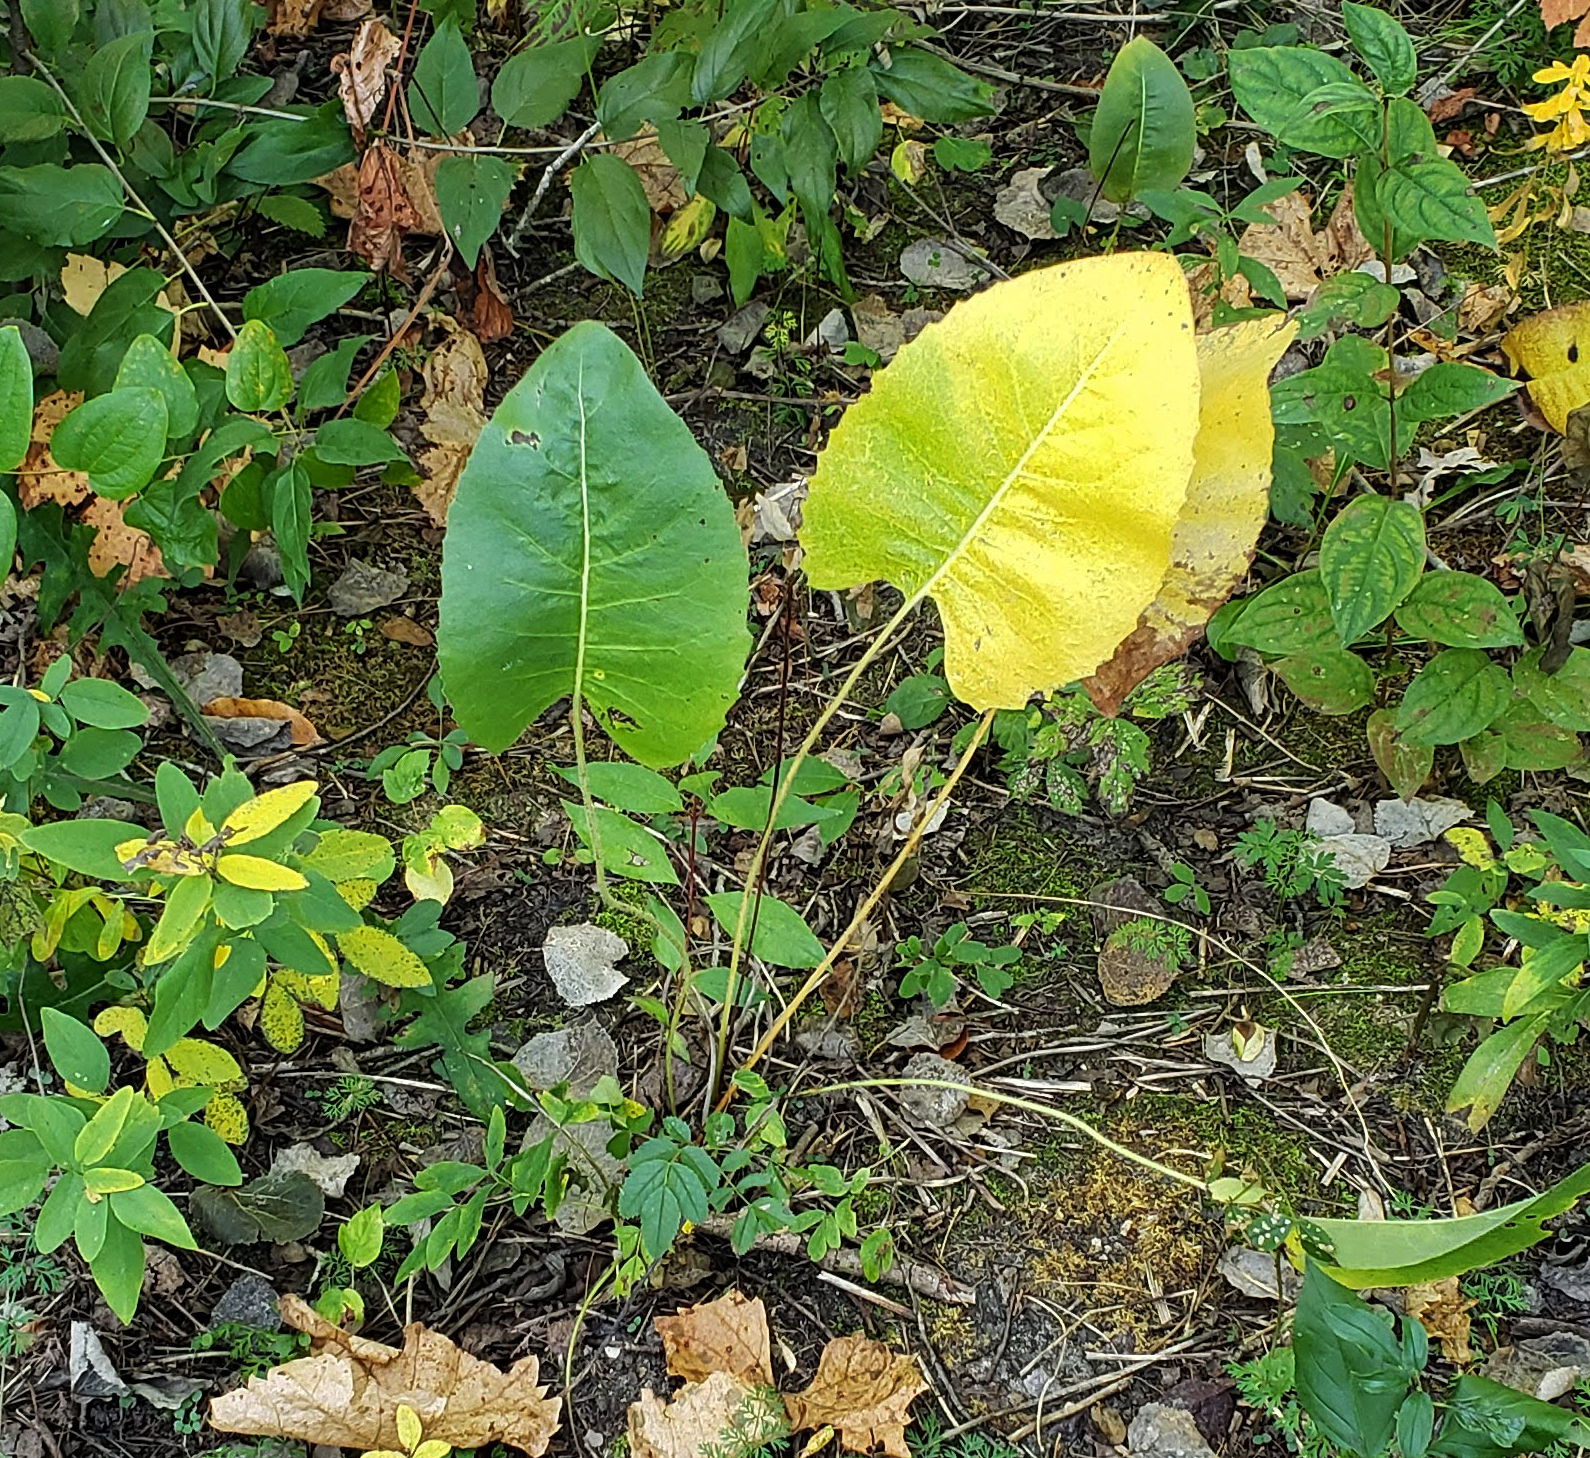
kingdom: Plantae
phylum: Tracheophyta
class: Magnoliopsida
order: Asterales
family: Asteraceae
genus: Silphium
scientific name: Silphium terebinthinaceum
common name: Basal-leaf rosinweed
